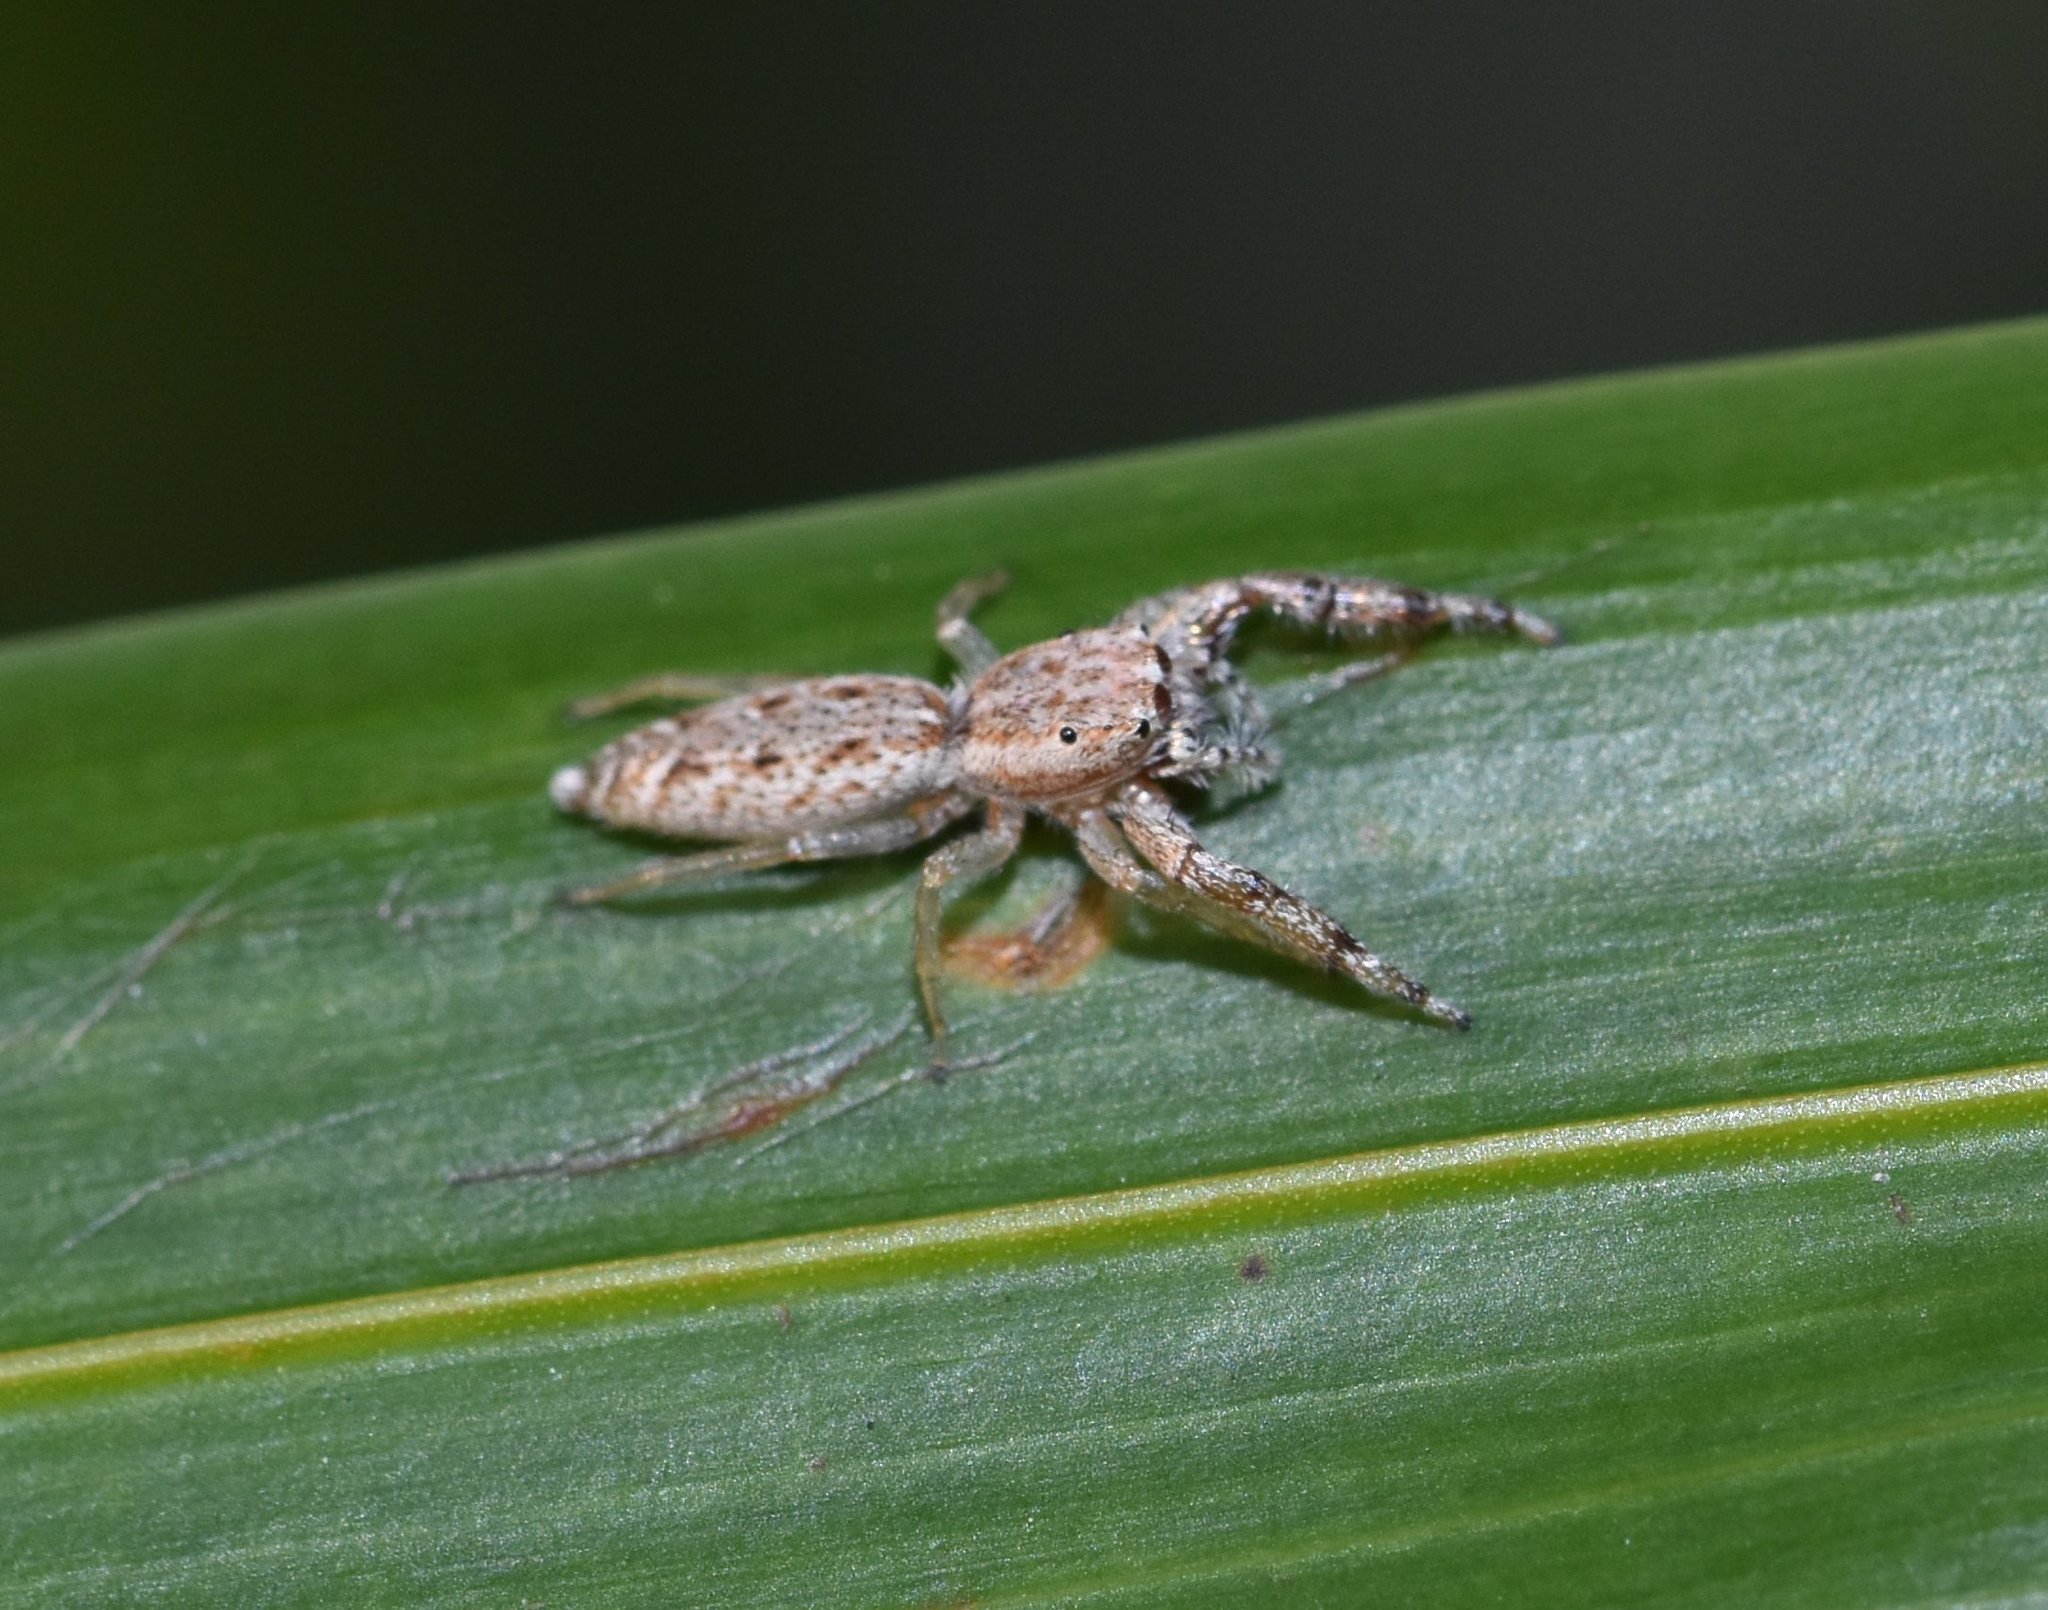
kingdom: Animalia
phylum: Arthropoda
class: Arachnida
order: Araneae
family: Salticidae
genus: Hentzia
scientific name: Hentzia chekika
